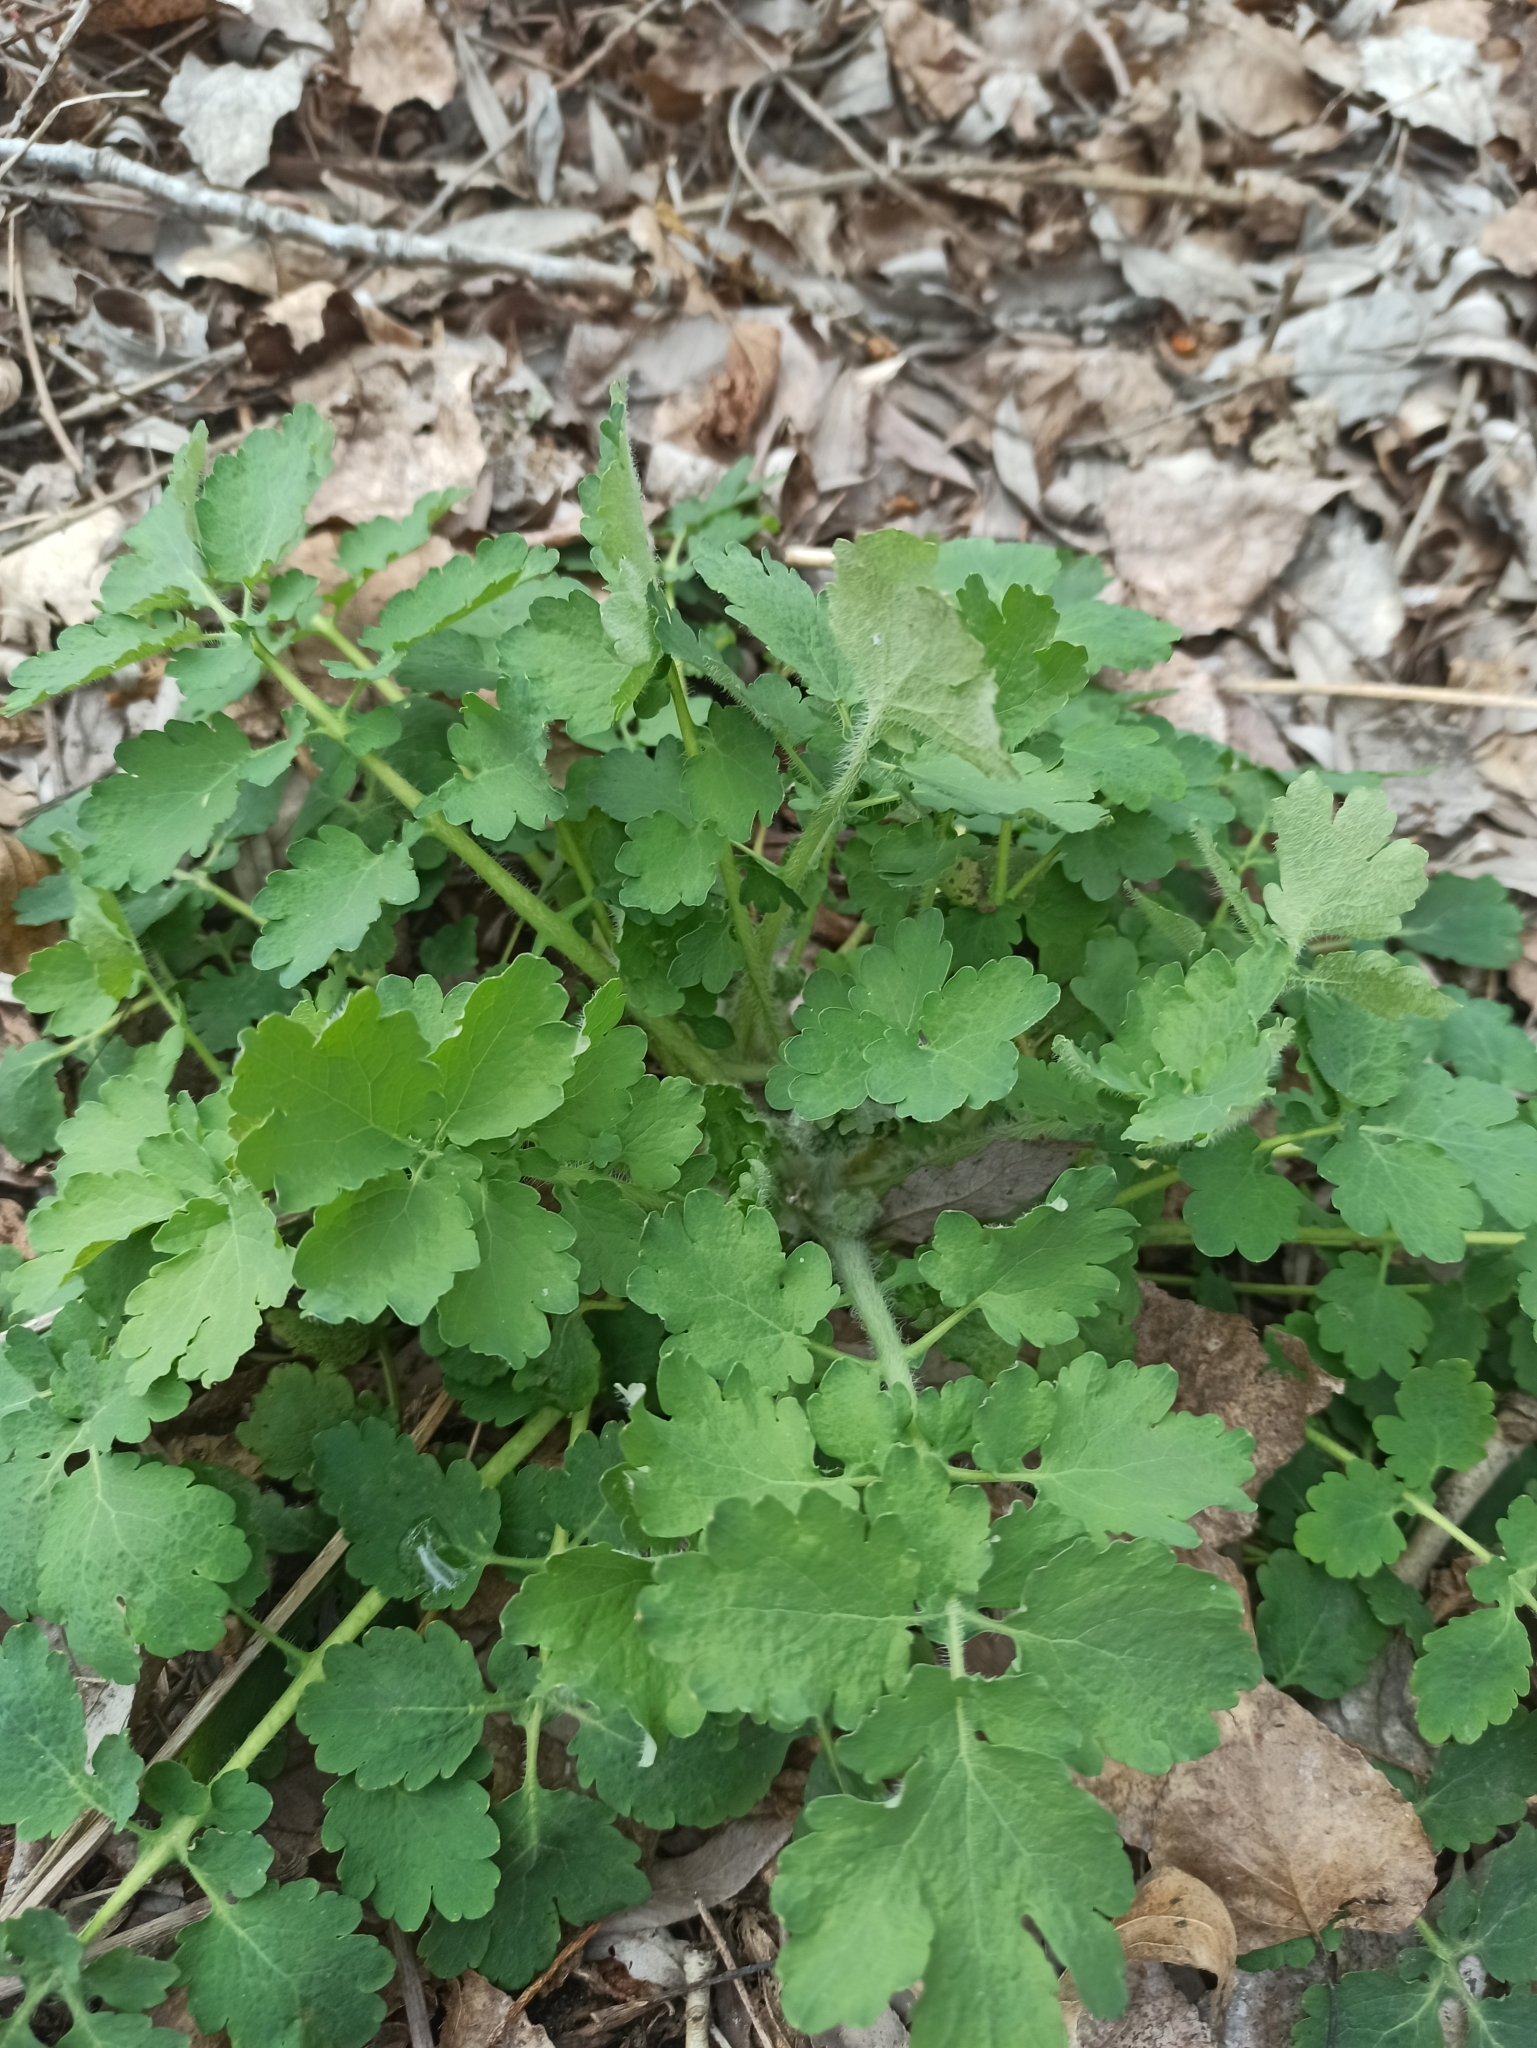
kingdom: Plantae
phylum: Tracheophyta
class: Magnoliopsida
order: Ranunculales
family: Papaveraceae
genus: Chelidonium
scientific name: Chelidonium majus
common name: Greater celandine
